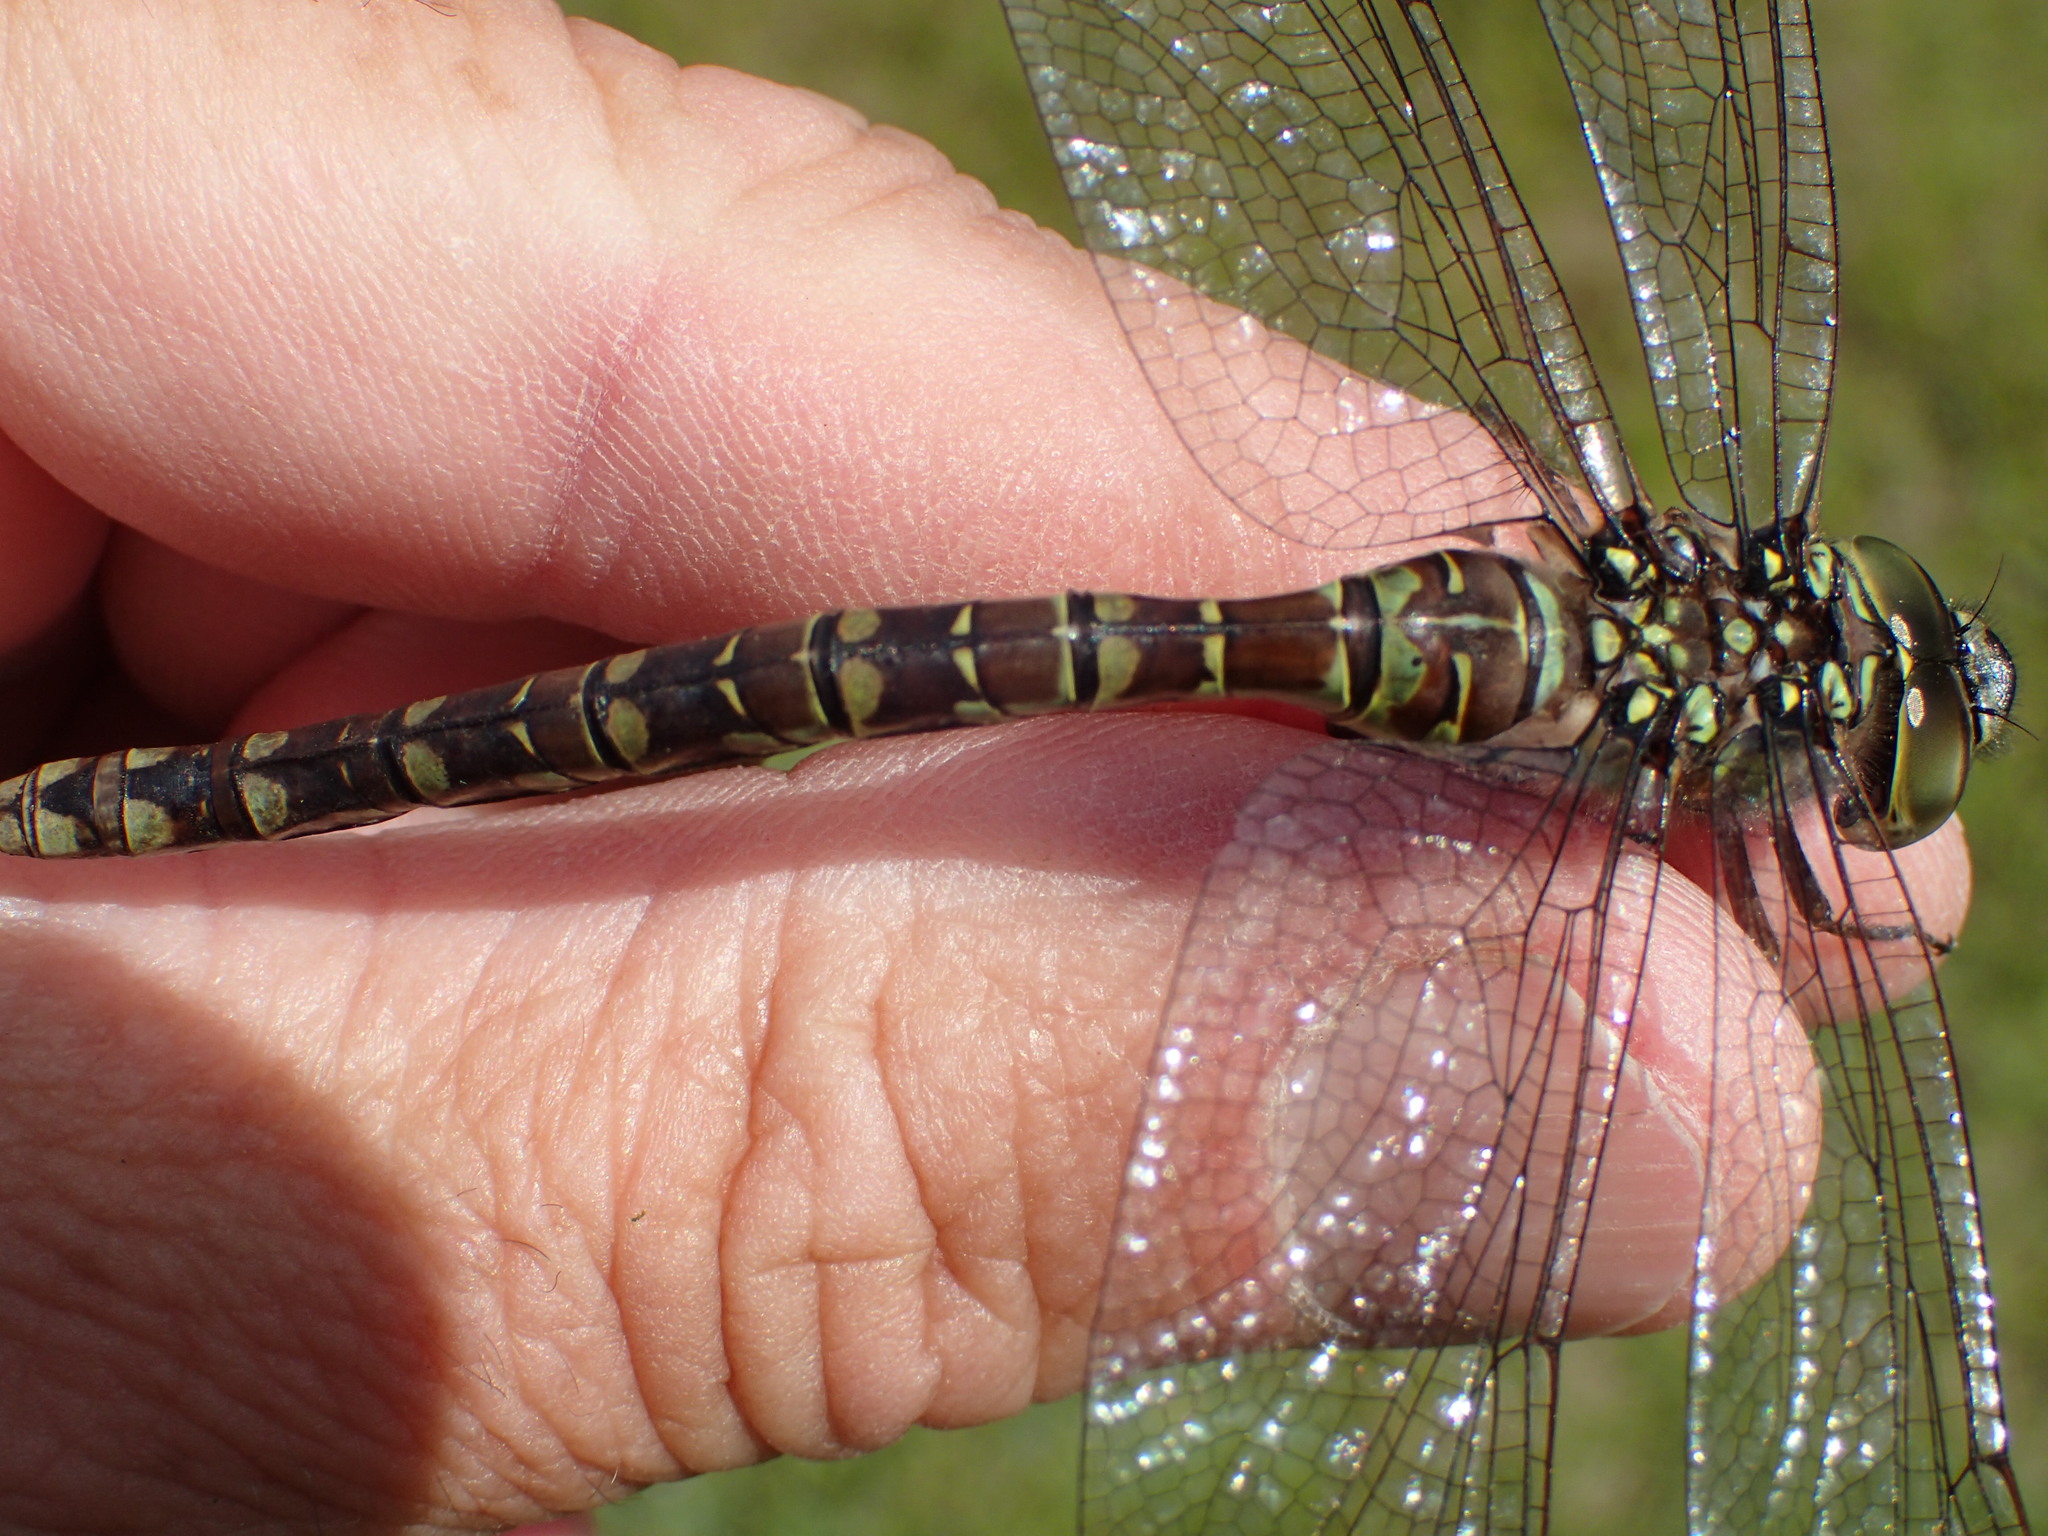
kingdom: Animalia
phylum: Arthropoda
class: Insecta
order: Odonata
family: Aeshnidae
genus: Aeshna
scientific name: Aeshna canadensis
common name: Canada darner
